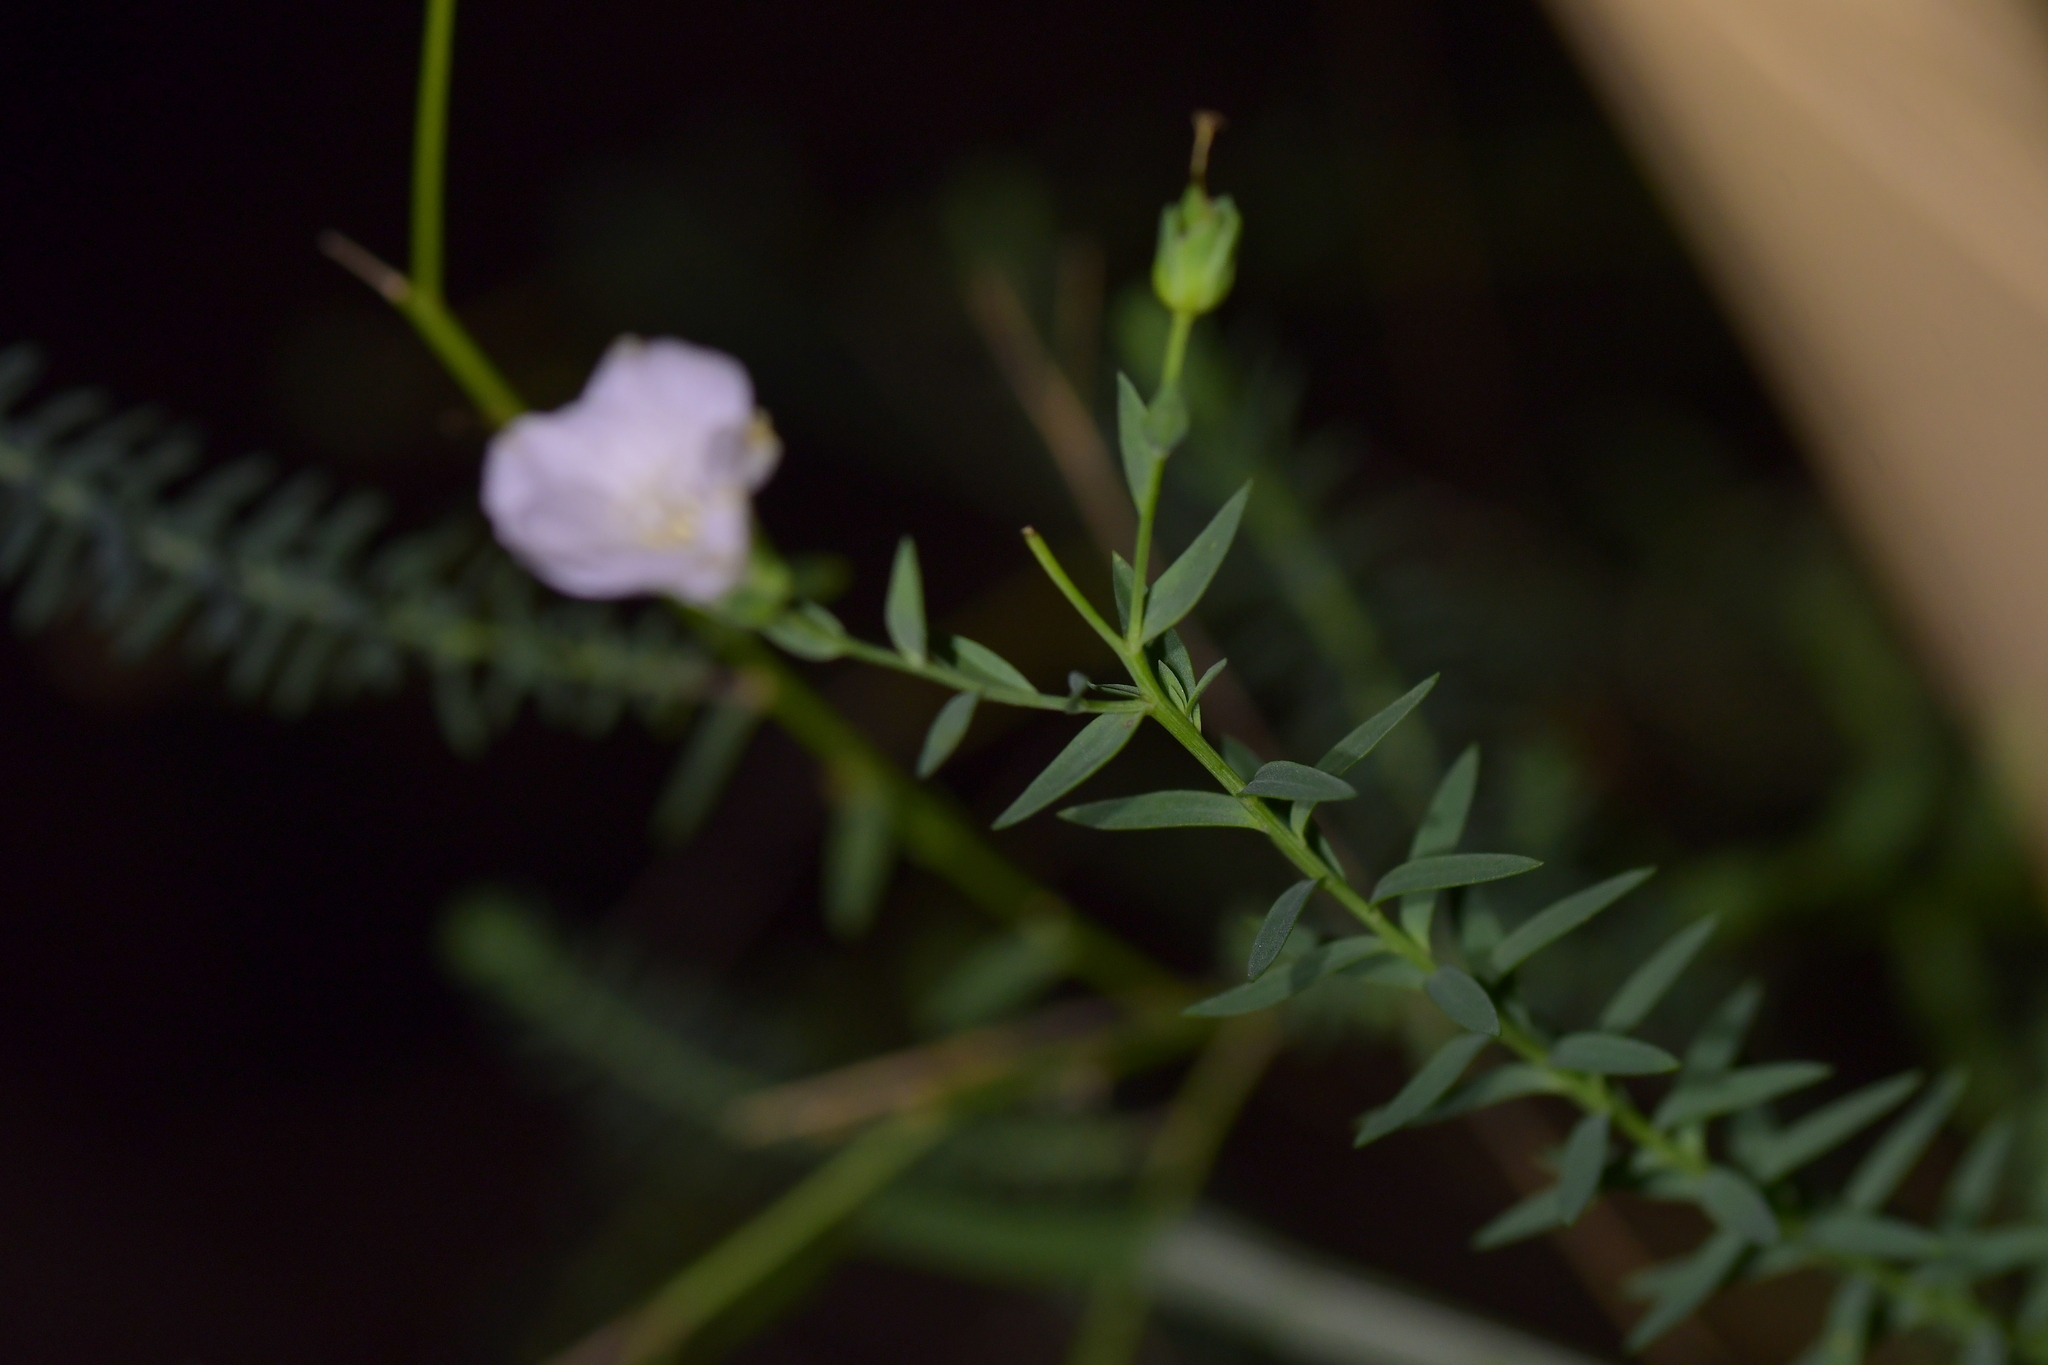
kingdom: Plantae
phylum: Tracheophyta
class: Magnoliopsida
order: Malpighiales
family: Linaceae
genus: Linum
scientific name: Linum monogynum
